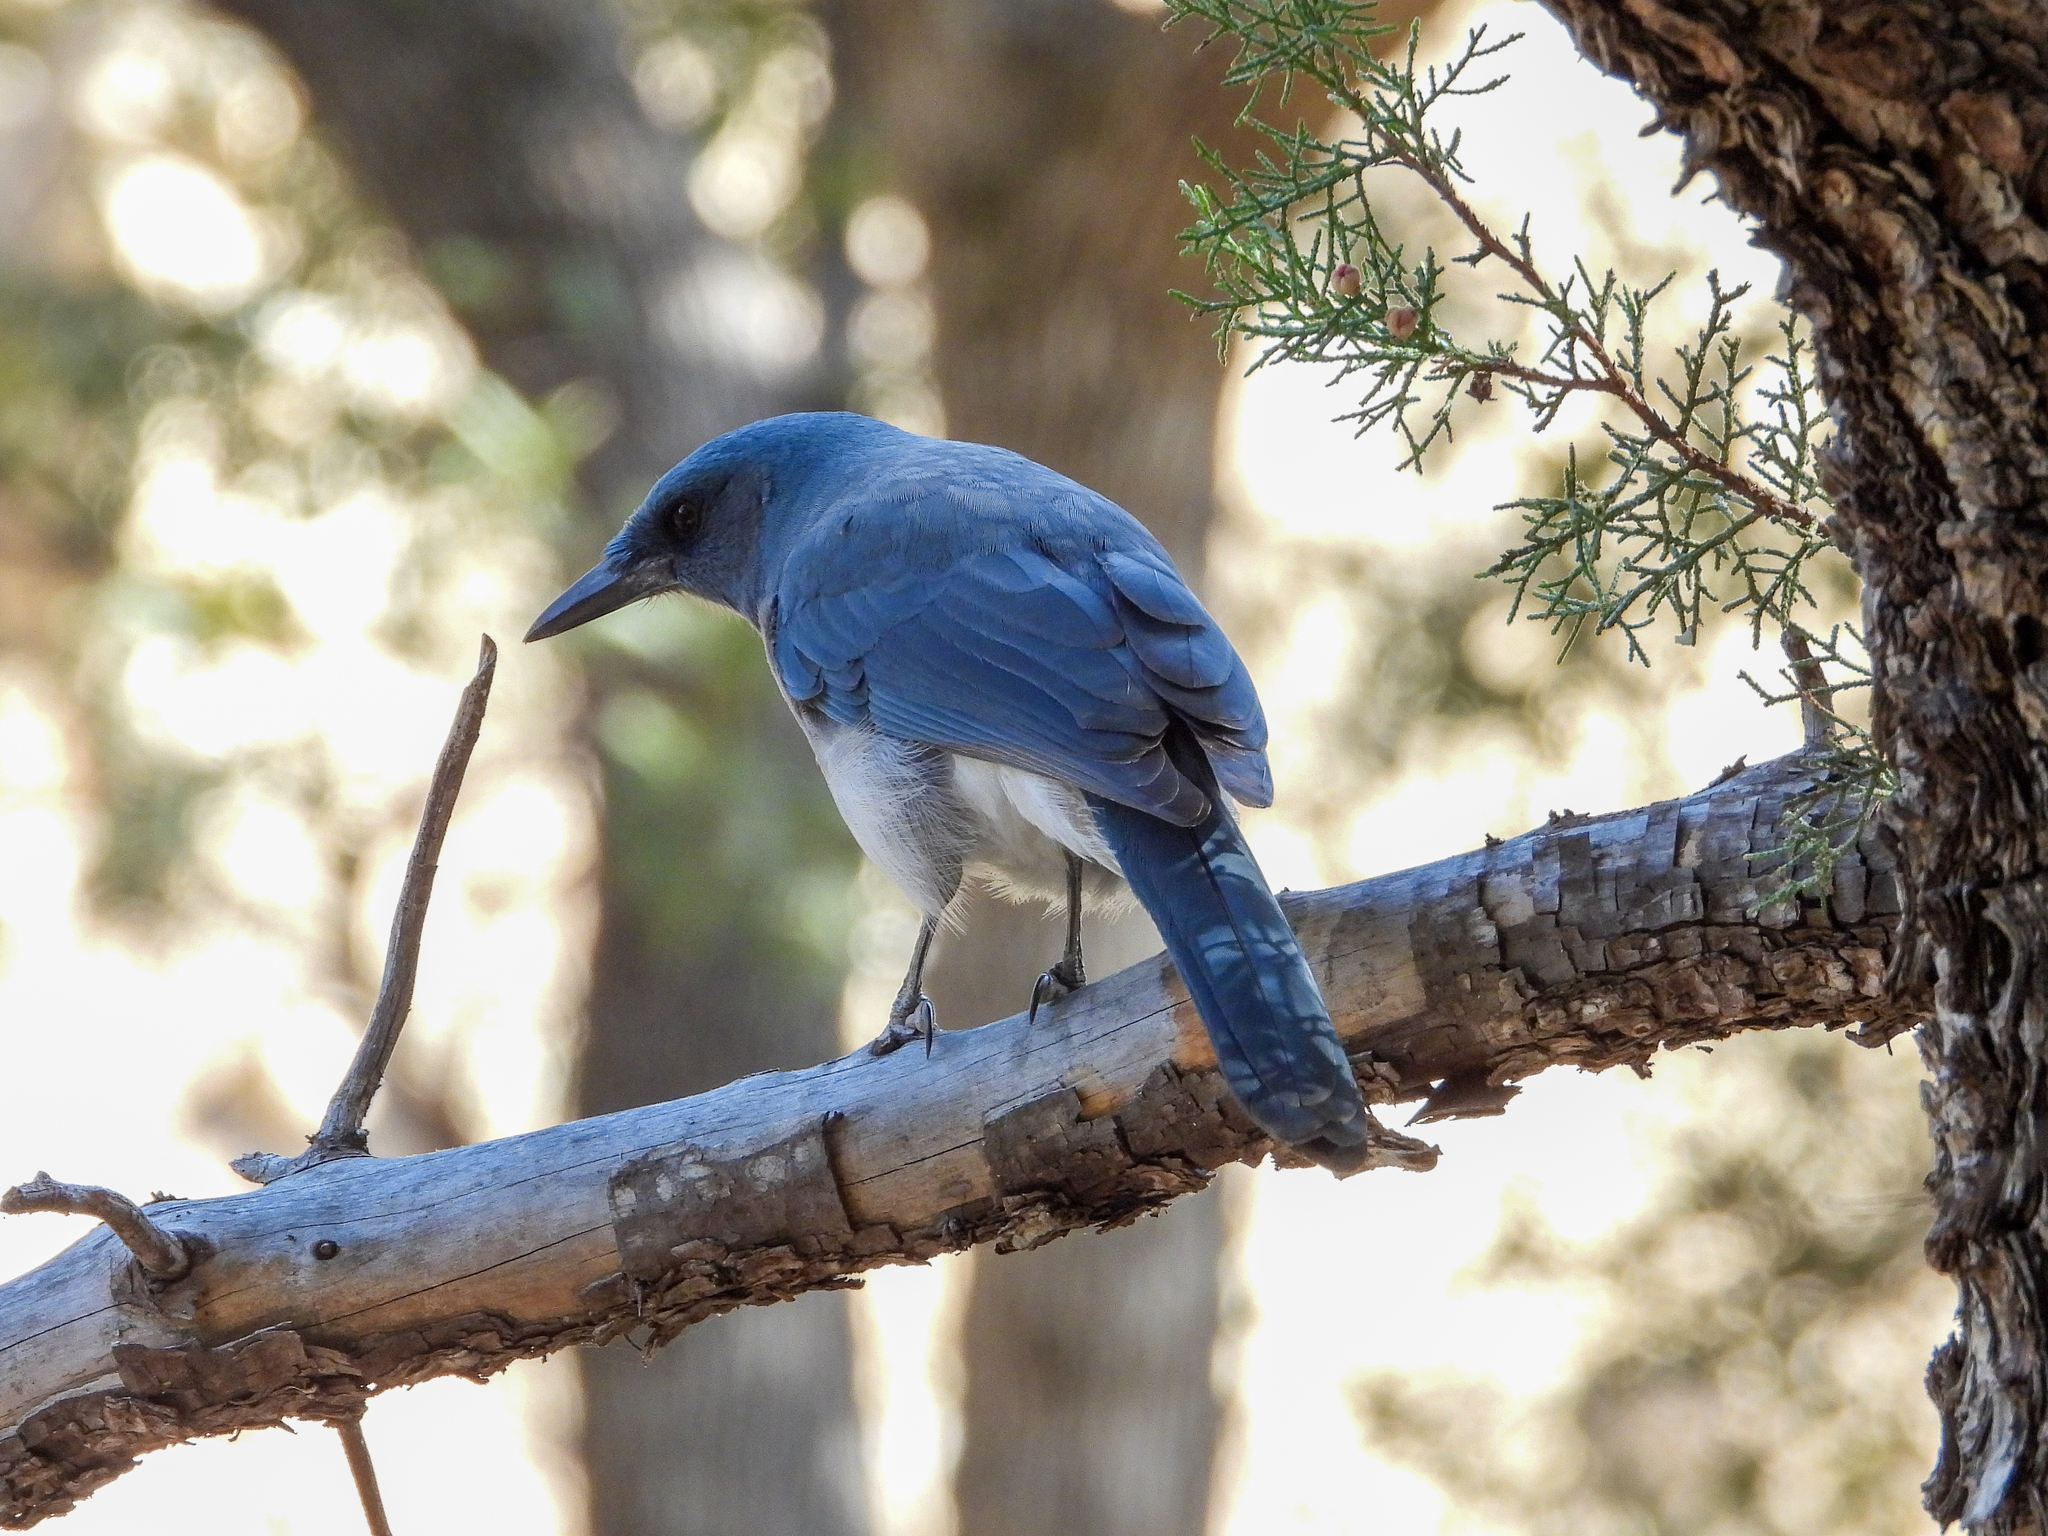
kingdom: Animalia
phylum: Chordata
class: Aves
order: Passeriformes
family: Corvidae
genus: Aphelocoma
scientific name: Aphelocoma wollweberi
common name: Mexican jay
